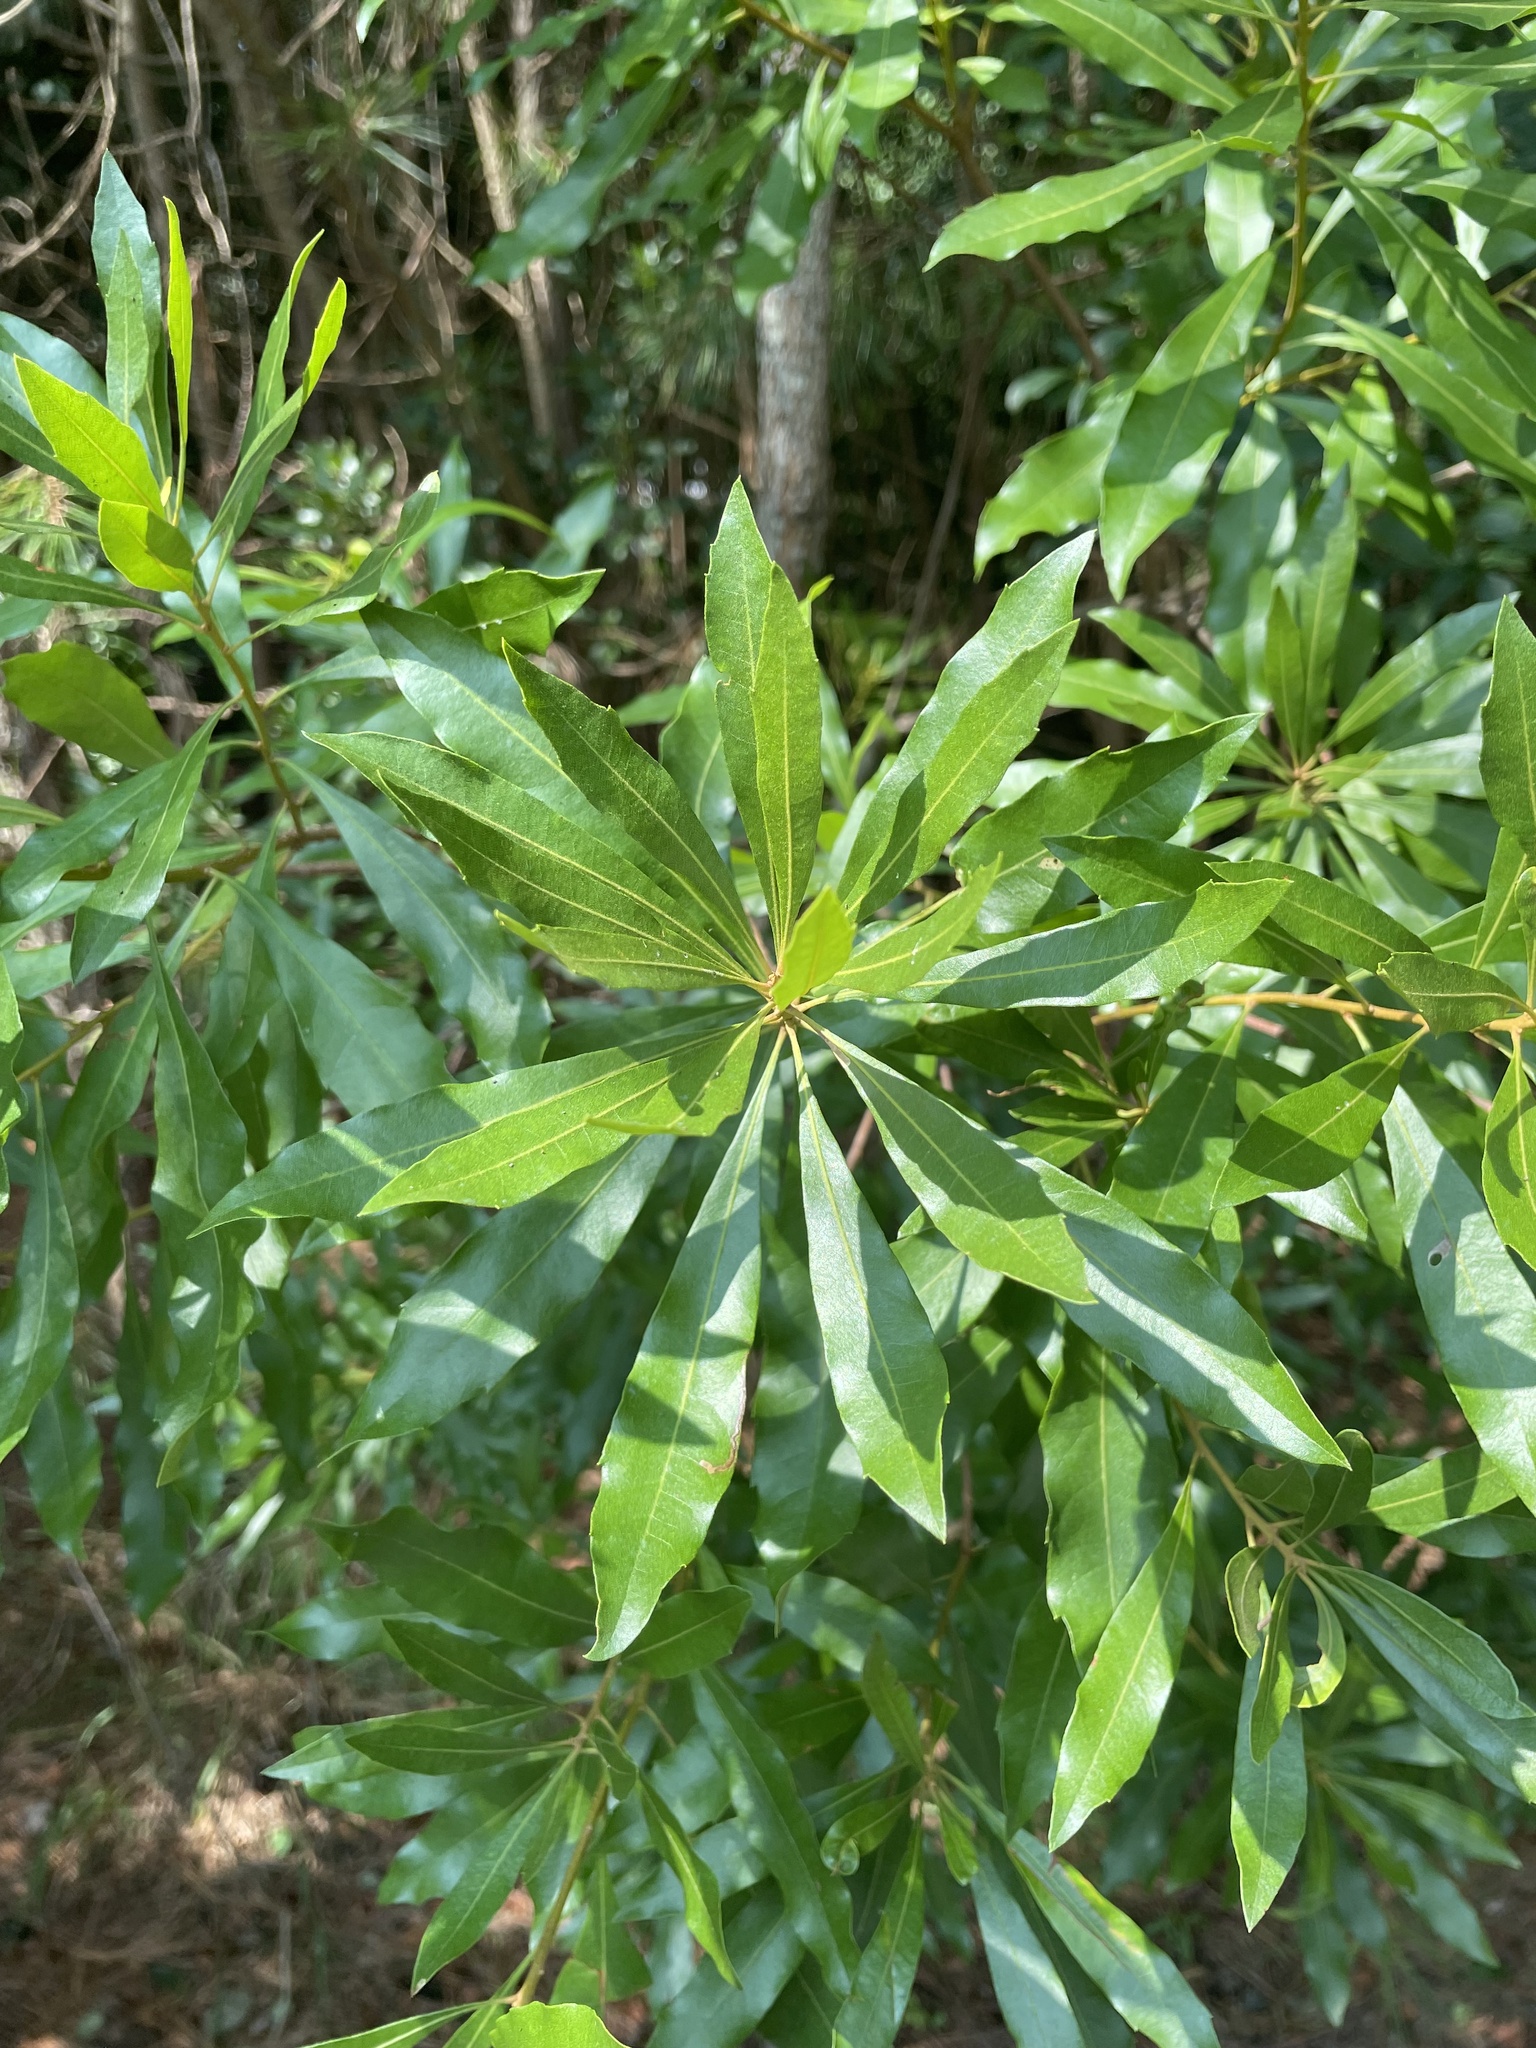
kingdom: Plantae
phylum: Tracheophyta
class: Magnoliopsida
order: Fagales
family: Myricaceae
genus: Morella
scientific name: Morella cerifera
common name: Wax myrtle
